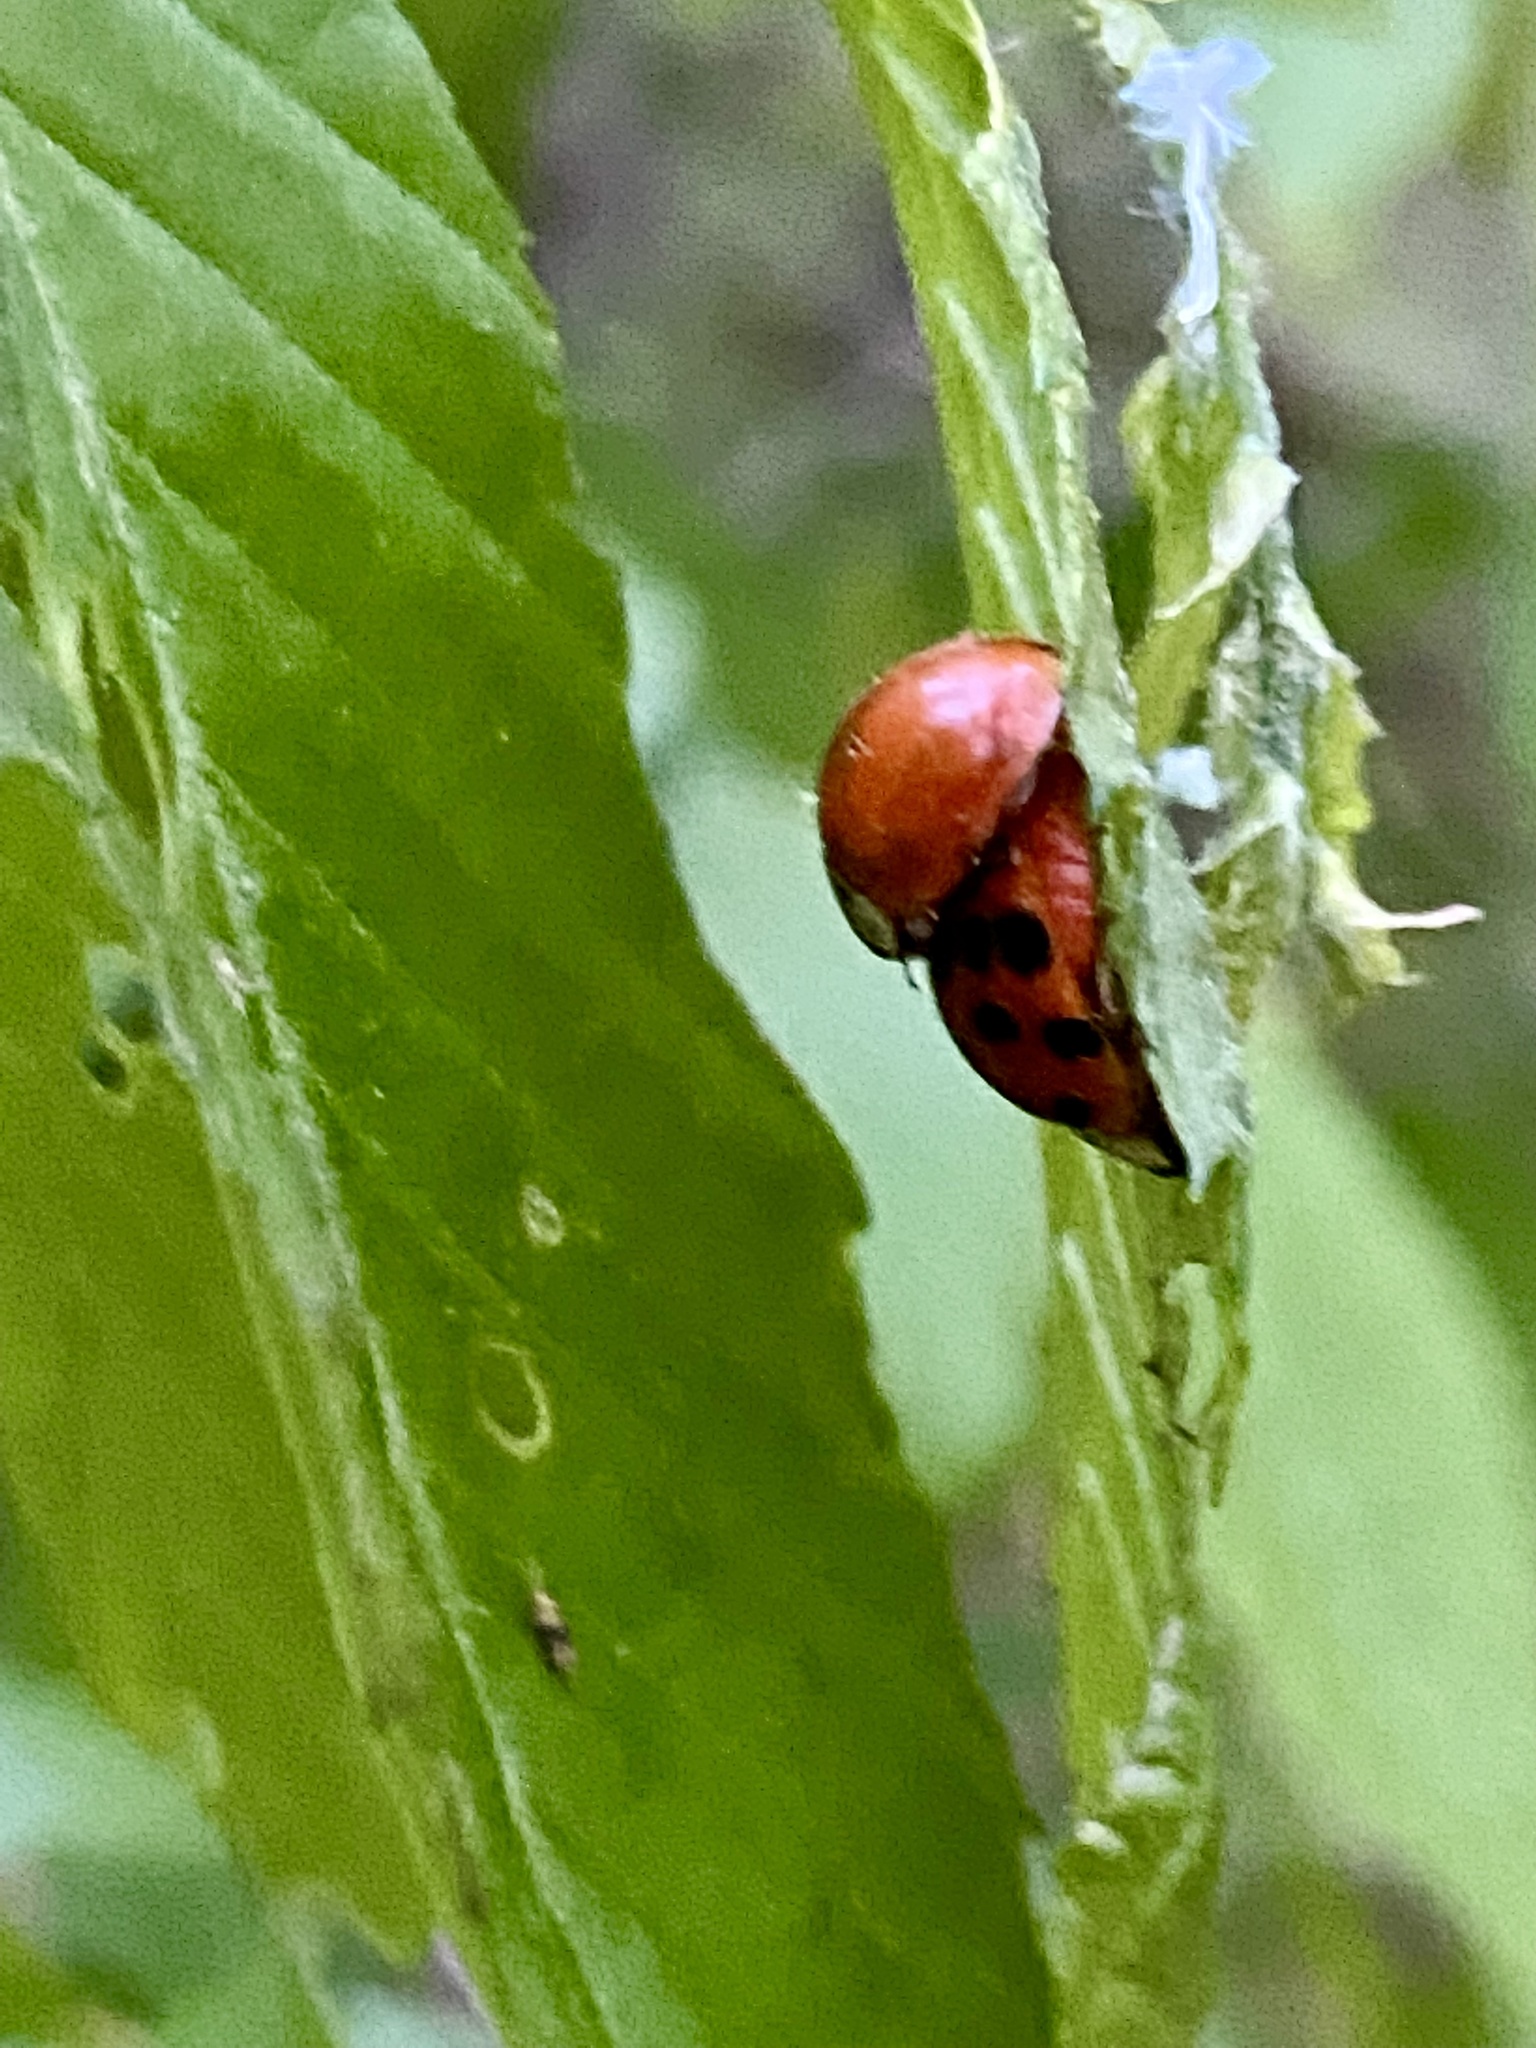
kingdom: Animalia
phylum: Arthropoda
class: Insecta
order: Coleoptera
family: Coccinellidae
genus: Harmonia
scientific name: Harmonia axyridis
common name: Harlequin ladybird
